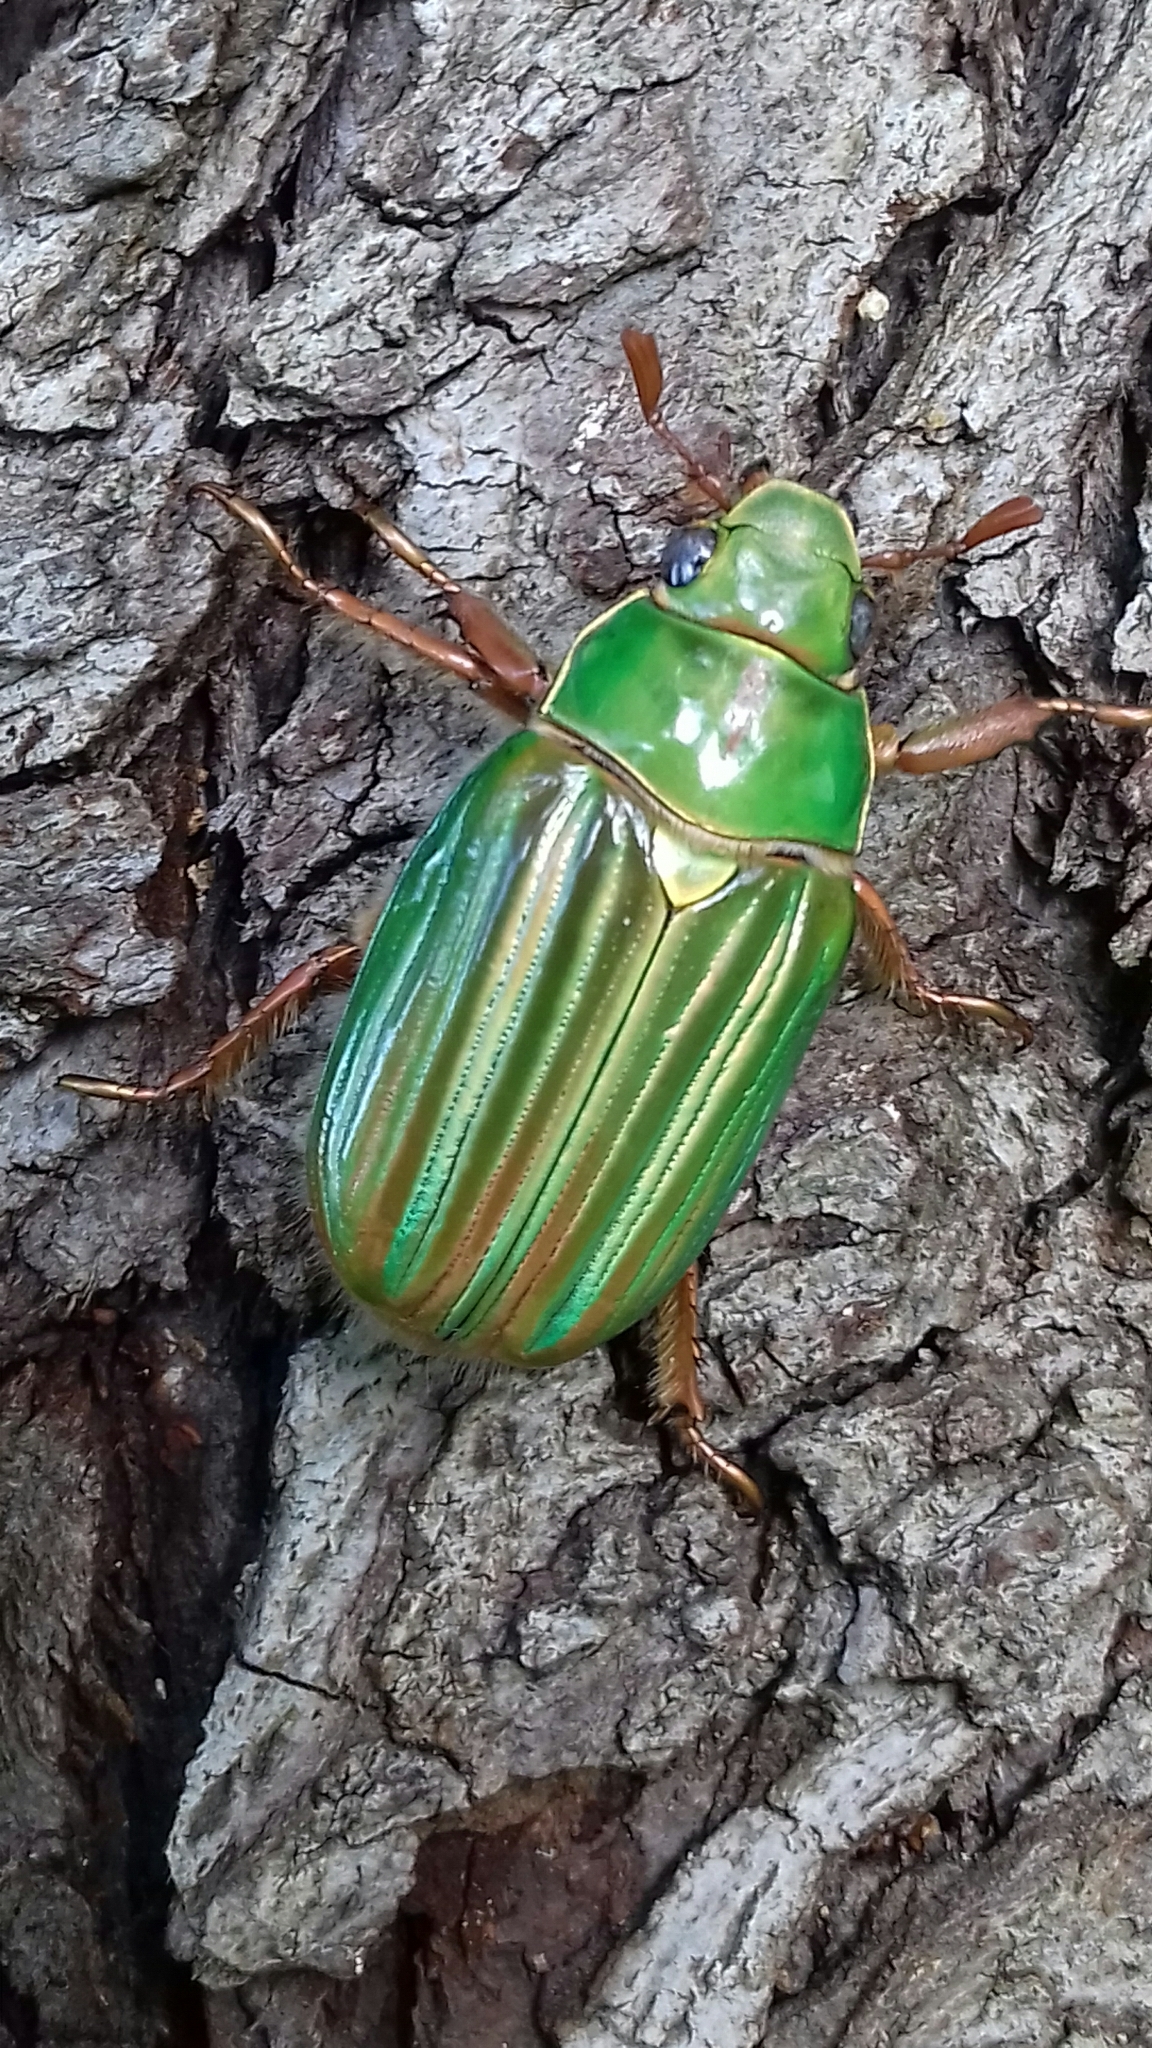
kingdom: Animalia
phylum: Arthropoda
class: Insecta
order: Coleoptera
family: Scarabaeidae
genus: Chrysina
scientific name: Chrysina adelaida
